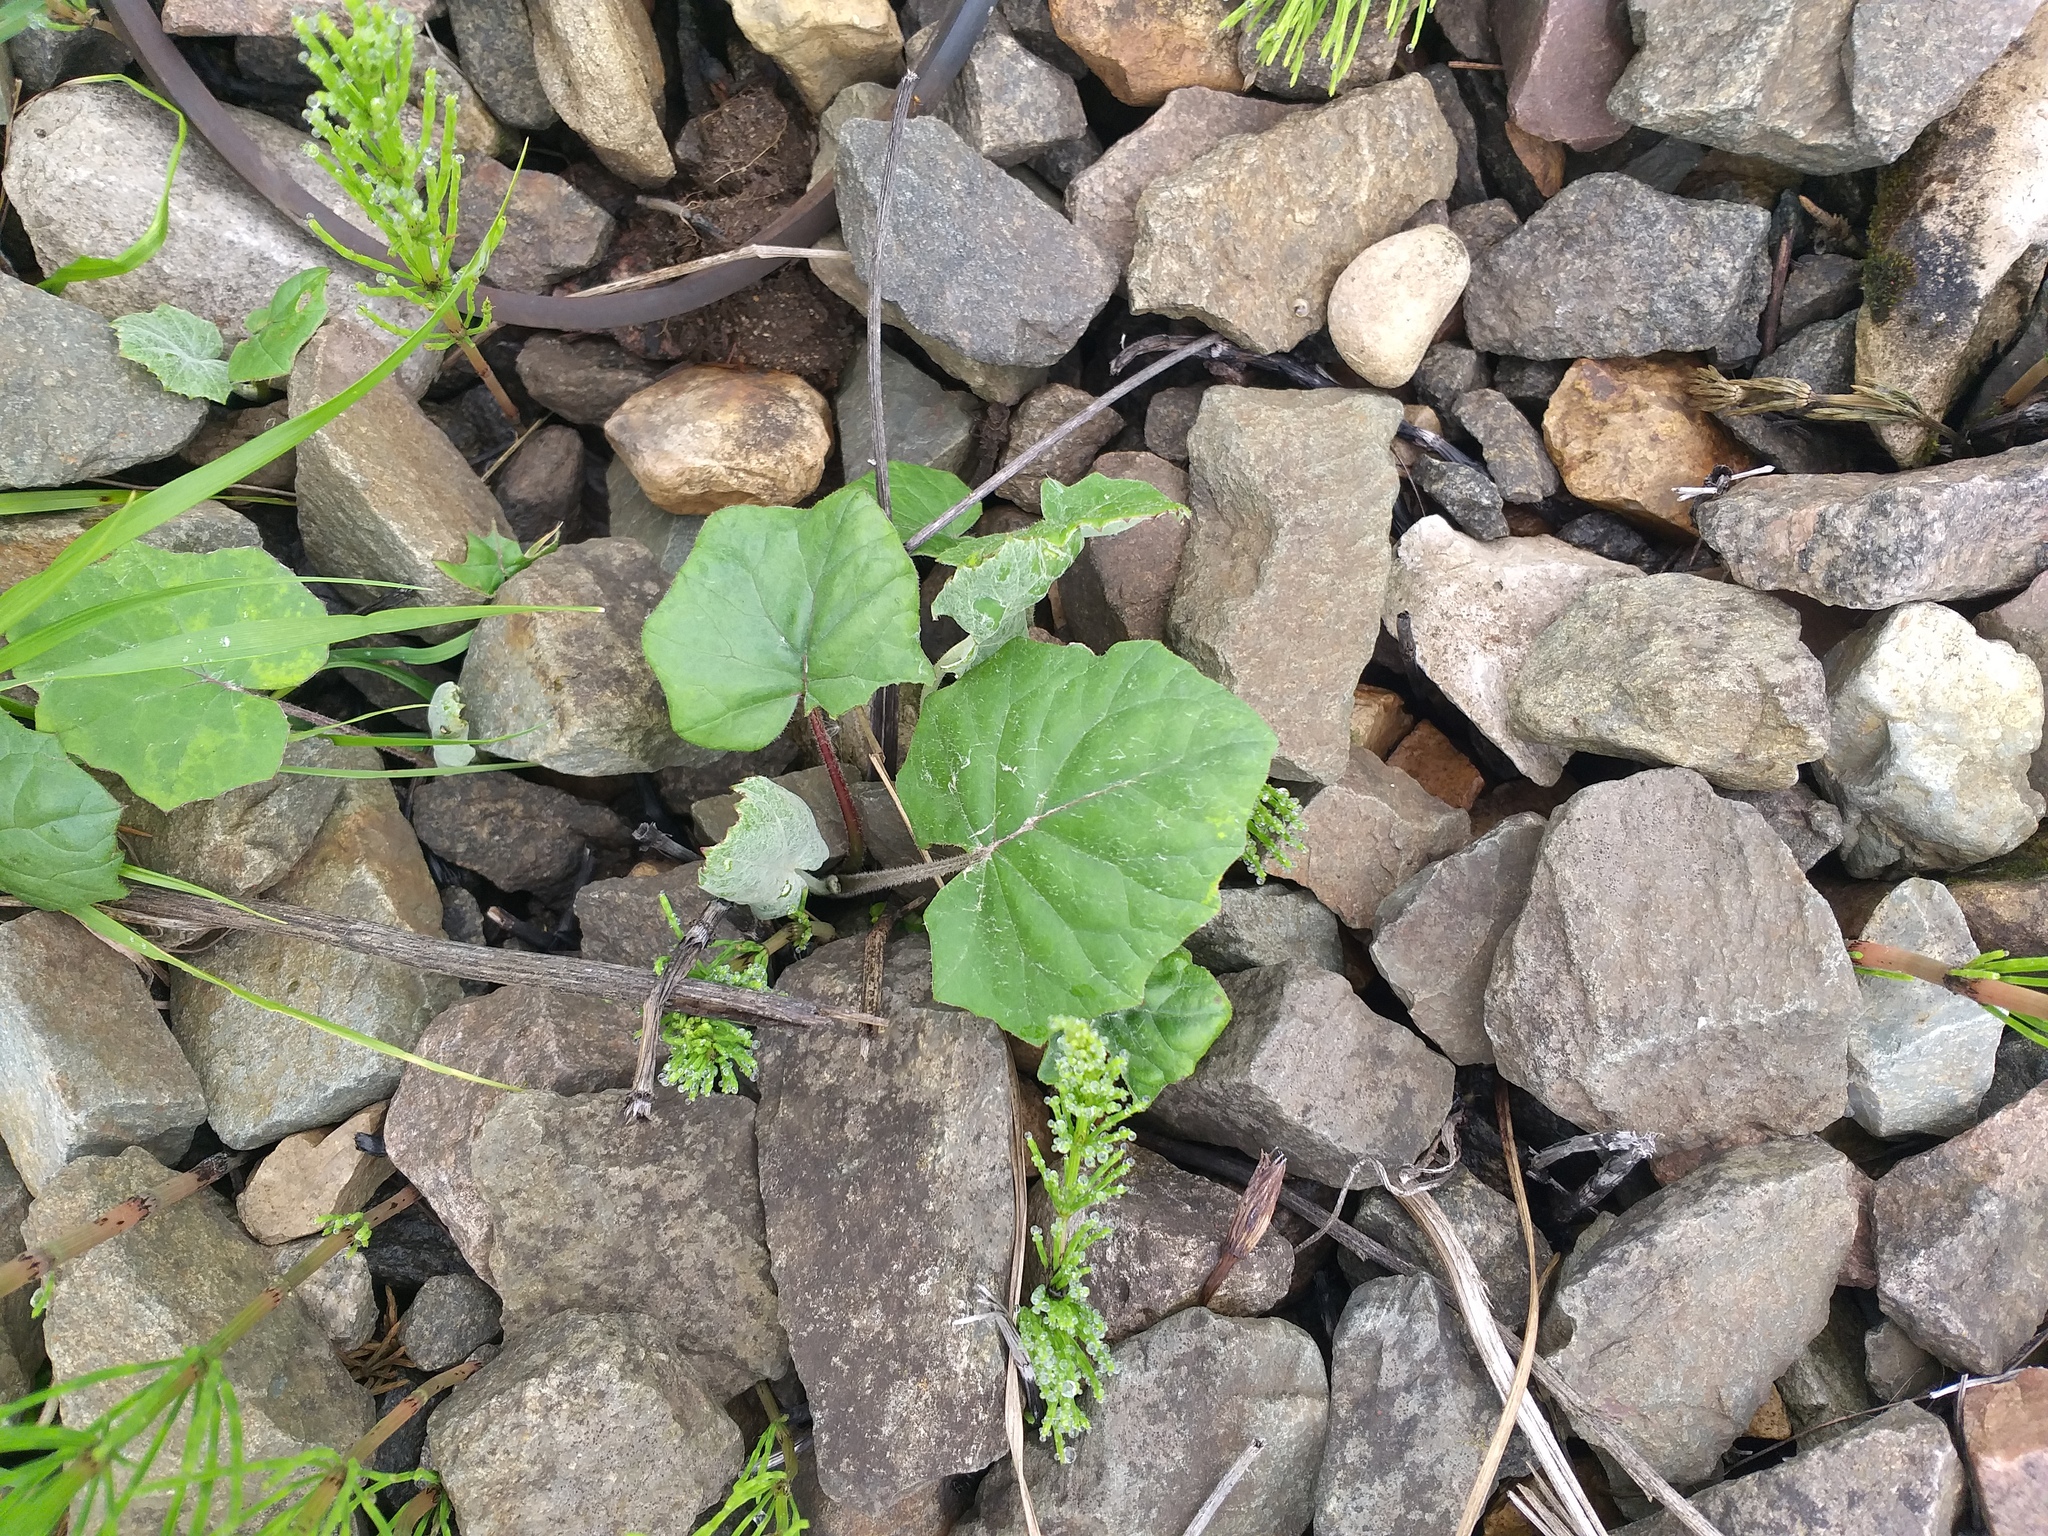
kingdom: Plantae
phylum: Tracheophyta
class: Magnoliopsida
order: Asterales
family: Asteraceae
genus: Tussilago
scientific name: Tussilago farfara
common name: Coltsfoot
